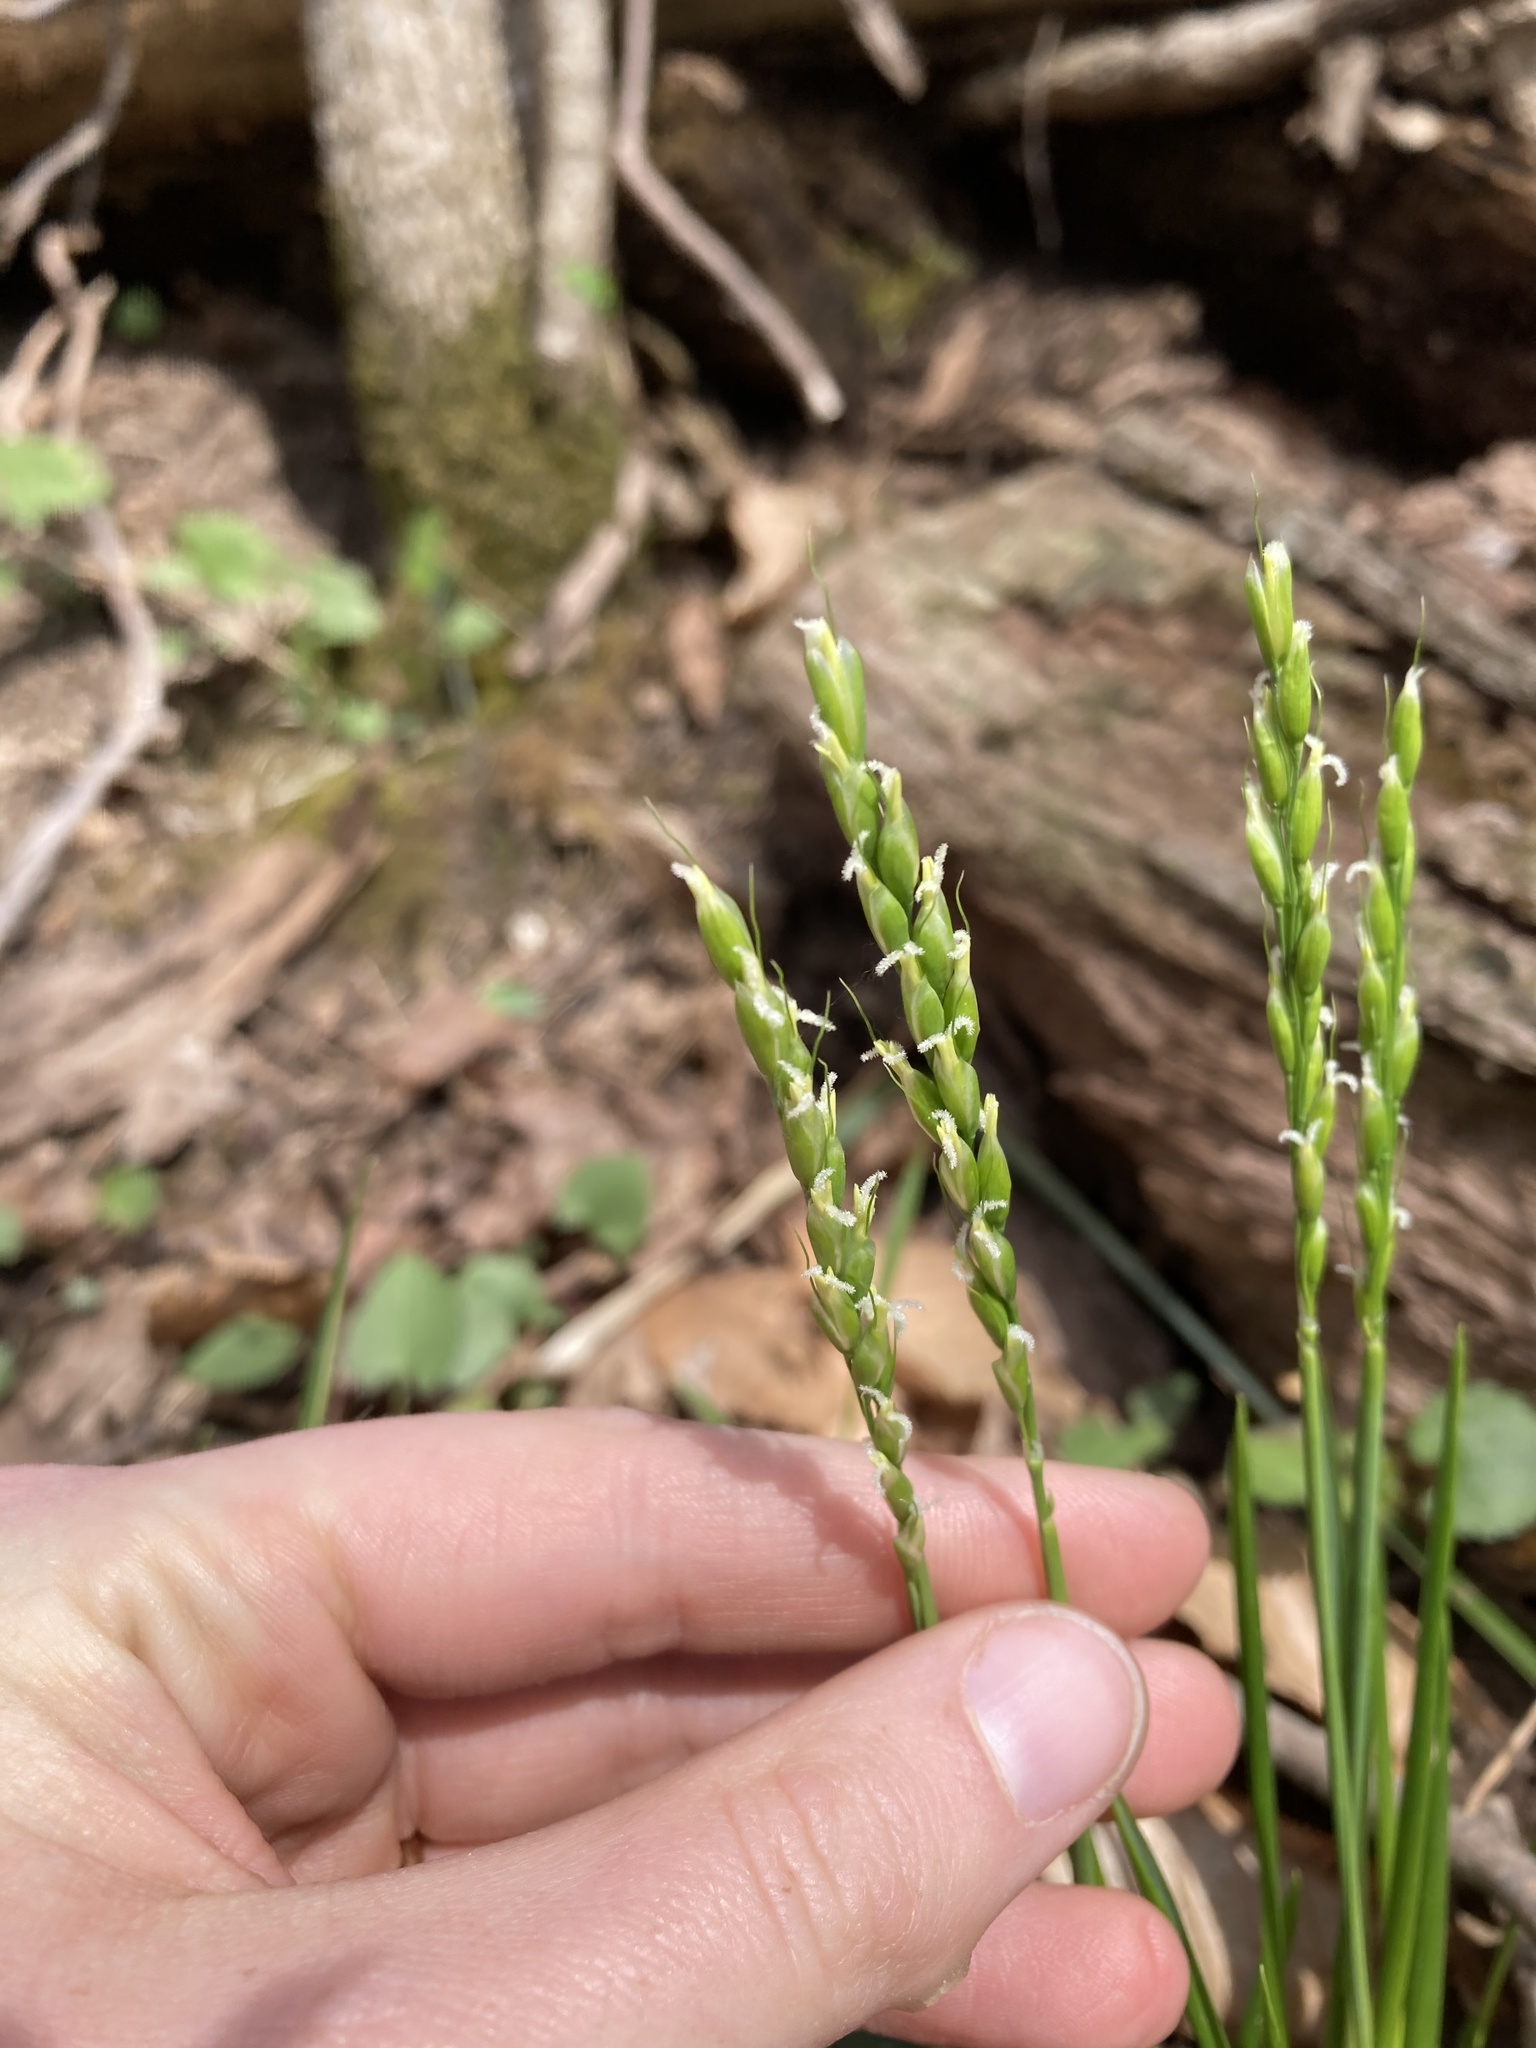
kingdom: Plantae
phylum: Tracheophyta
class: Liliopsida
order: Poales
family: Poaceae
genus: Oryzopsis
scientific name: Oryzopsis asperifolia
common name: Rough-leaved mountain rice
